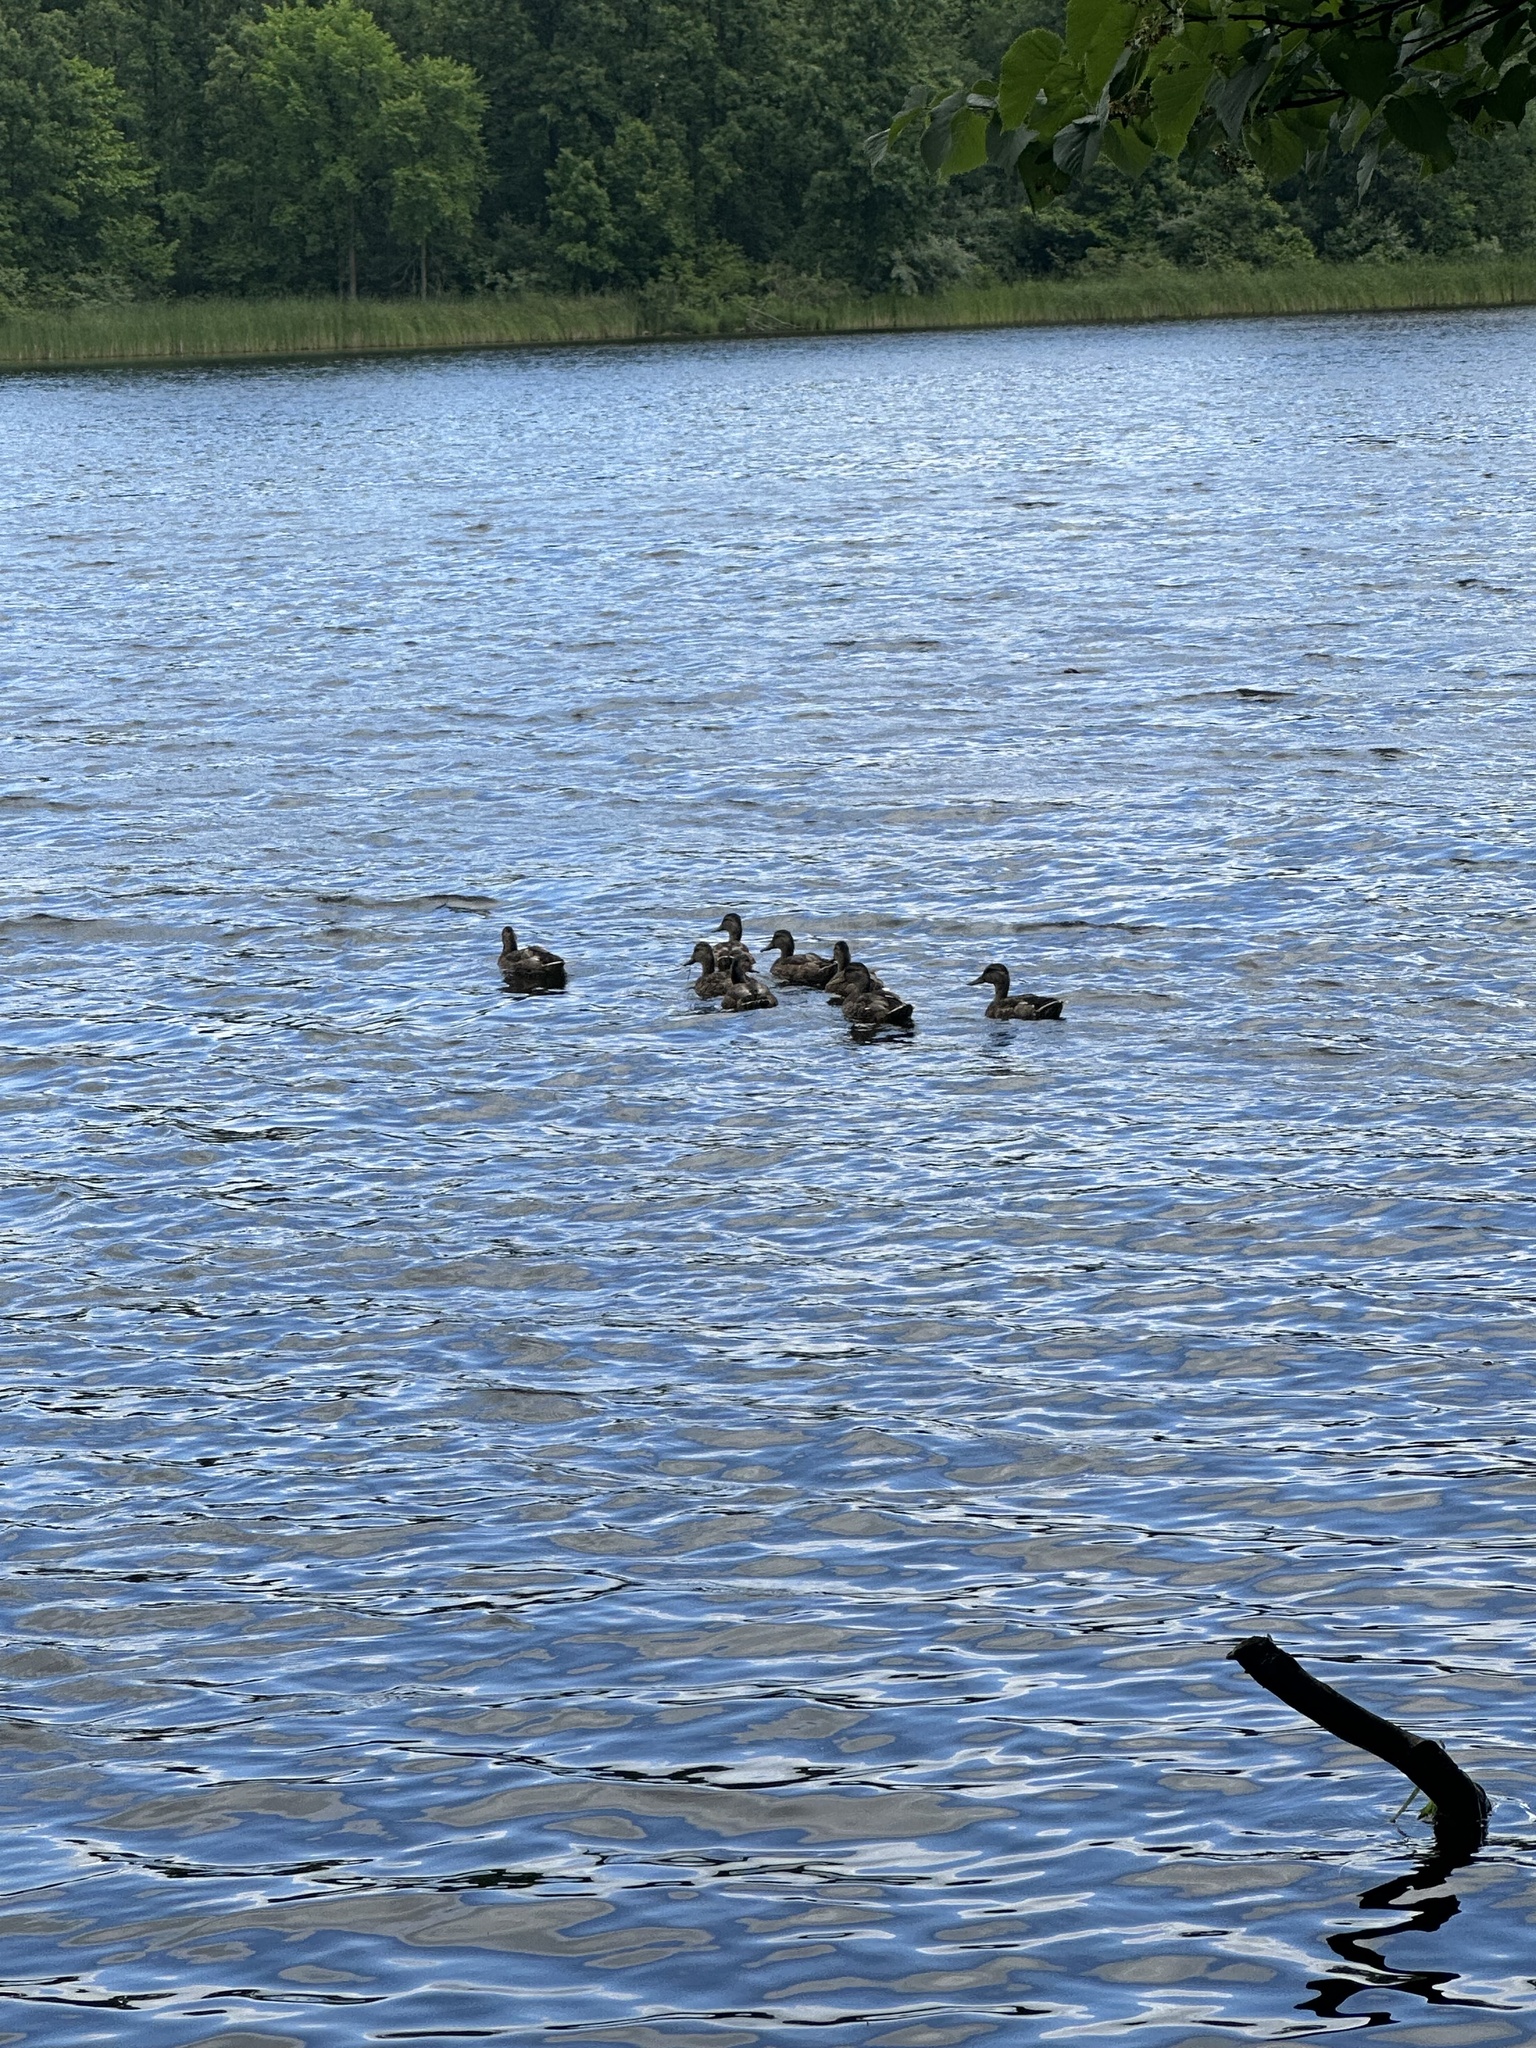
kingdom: Animalia
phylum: Chordata
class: Aves
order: Anseriformes
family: Anatidae
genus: Anas
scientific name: Anas platyrhynchos
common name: Mallard
